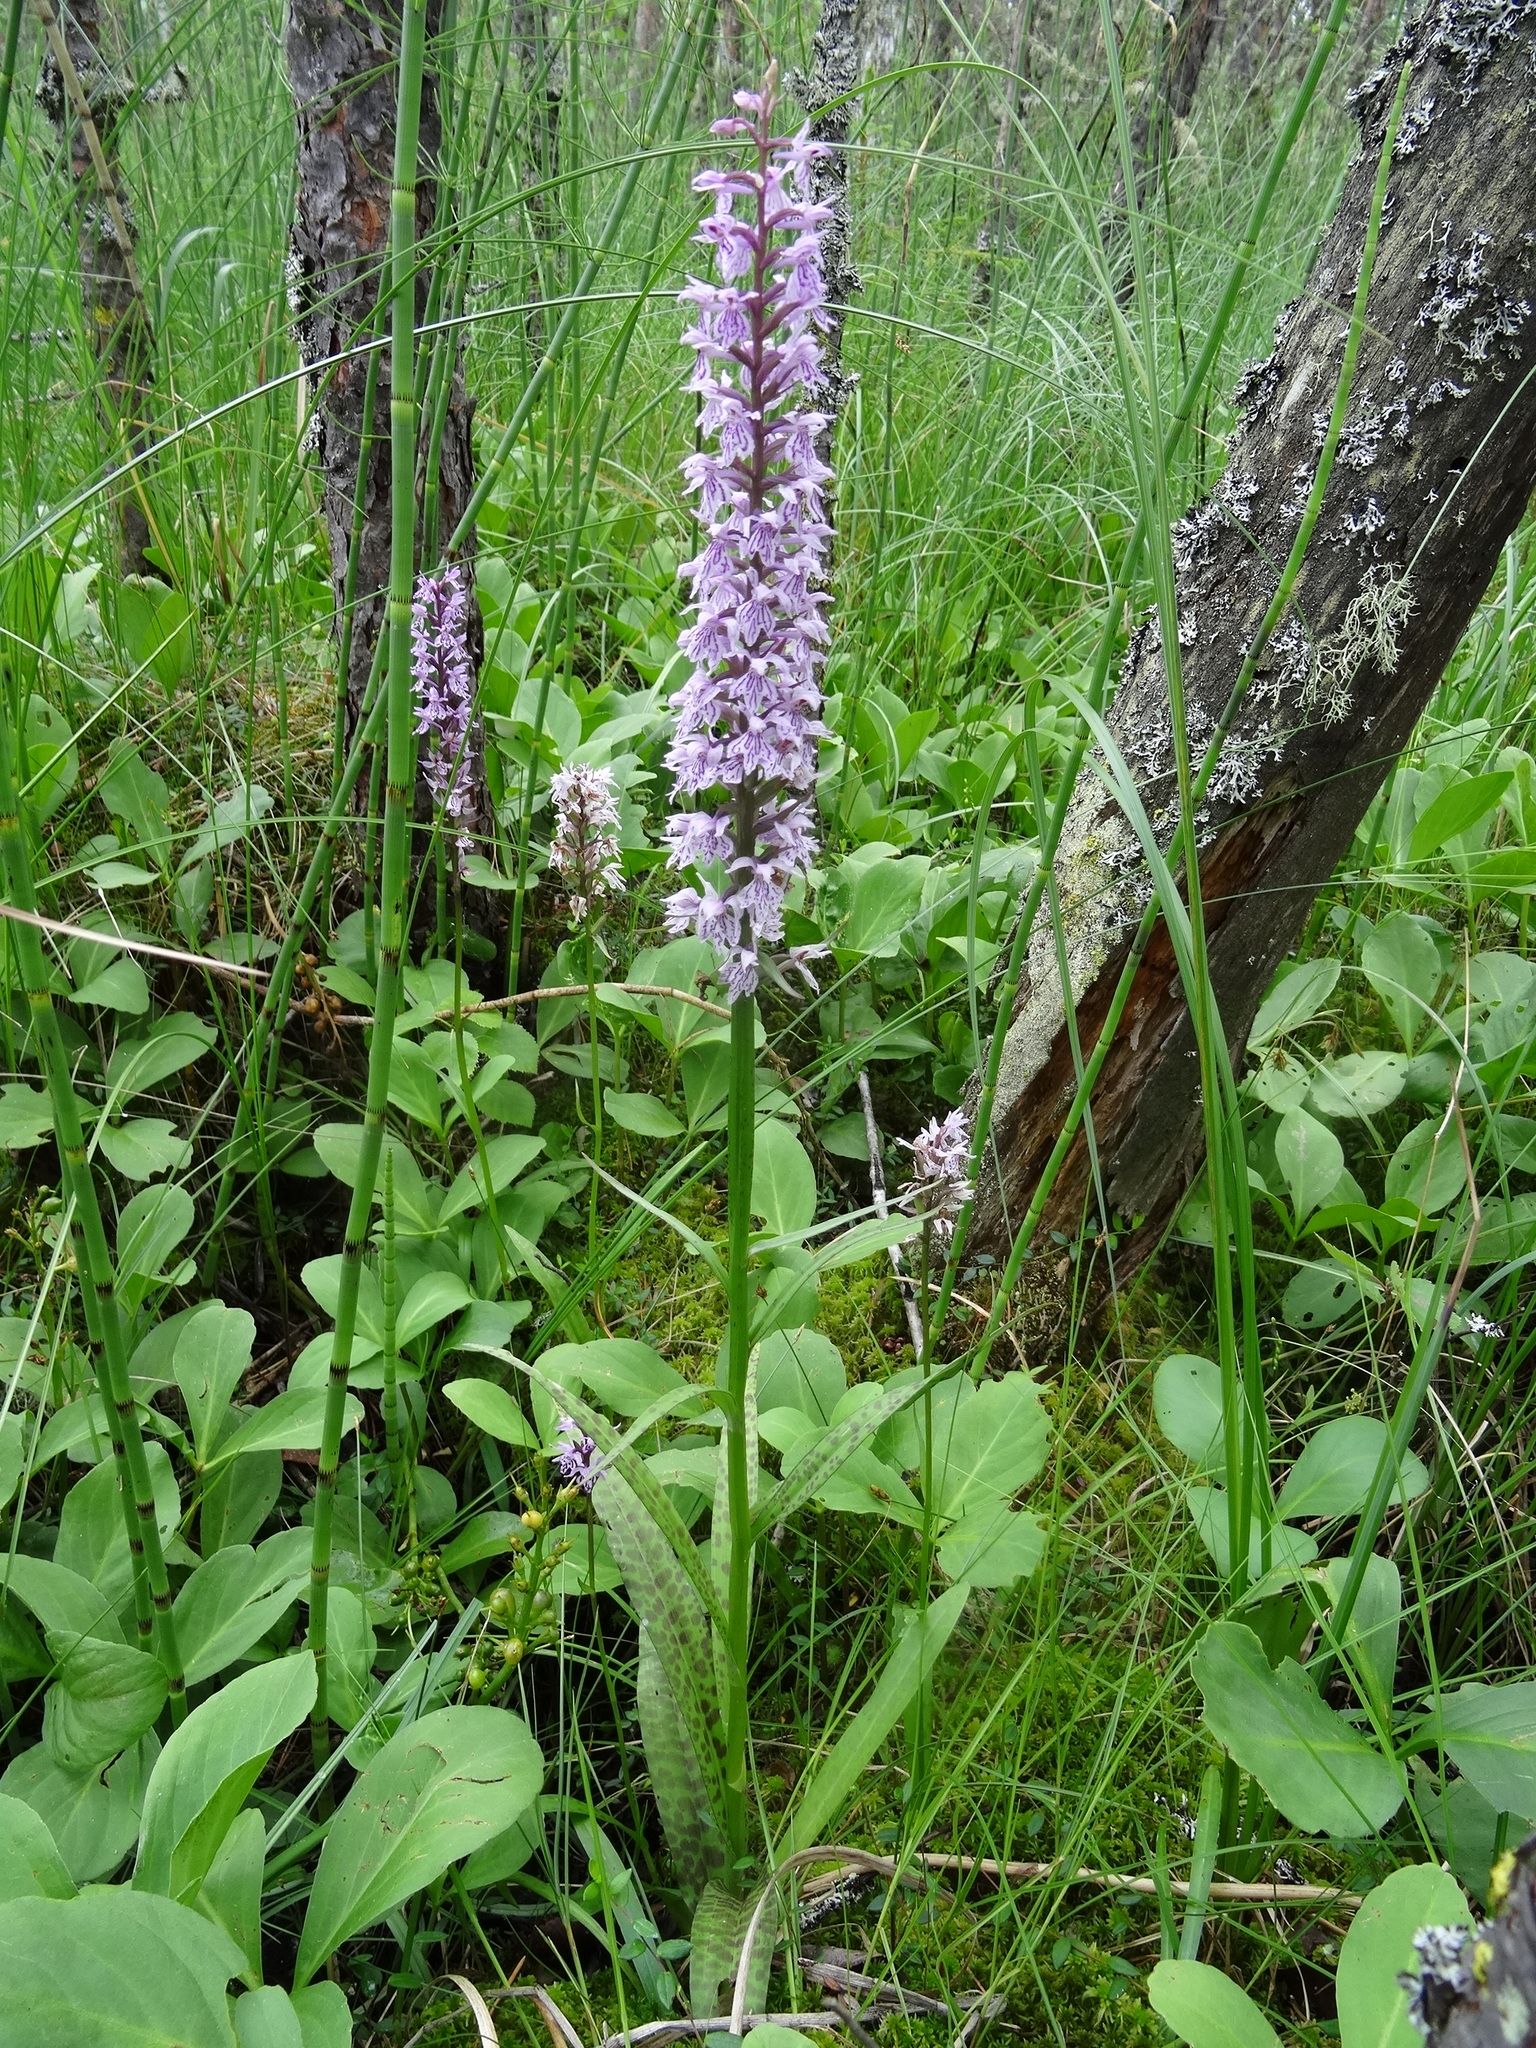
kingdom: Plantae
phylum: Tracheophyta
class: Liliopsida
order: Asparagales
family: Orchidaceae
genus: Dactylorhiza
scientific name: Dactylorhiza maculata
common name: Heath spotted-orchid
